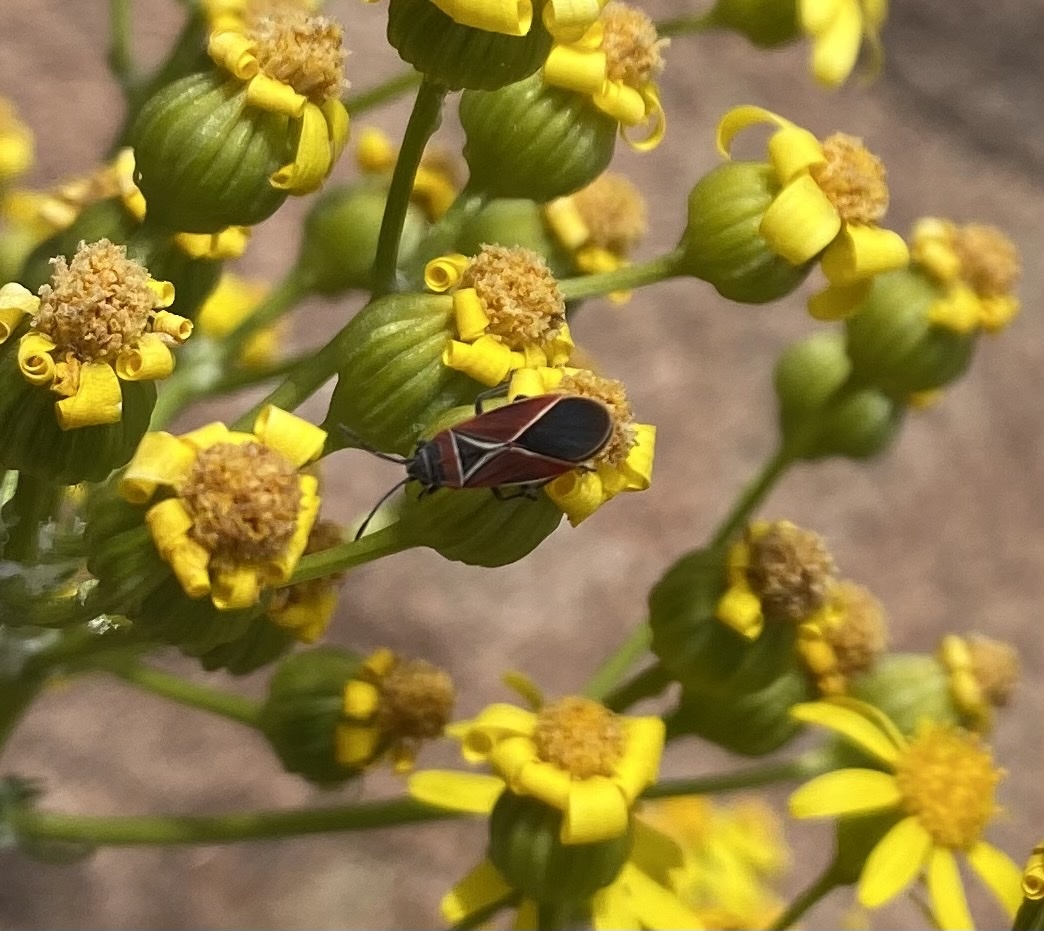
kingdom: Animalia
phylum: Arthropoda
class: Insecta
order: Hemiptera
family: Lygaeidae
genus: Neacoryphus
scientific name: Neacoryphus bicrucis
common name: Lygaeid bug
